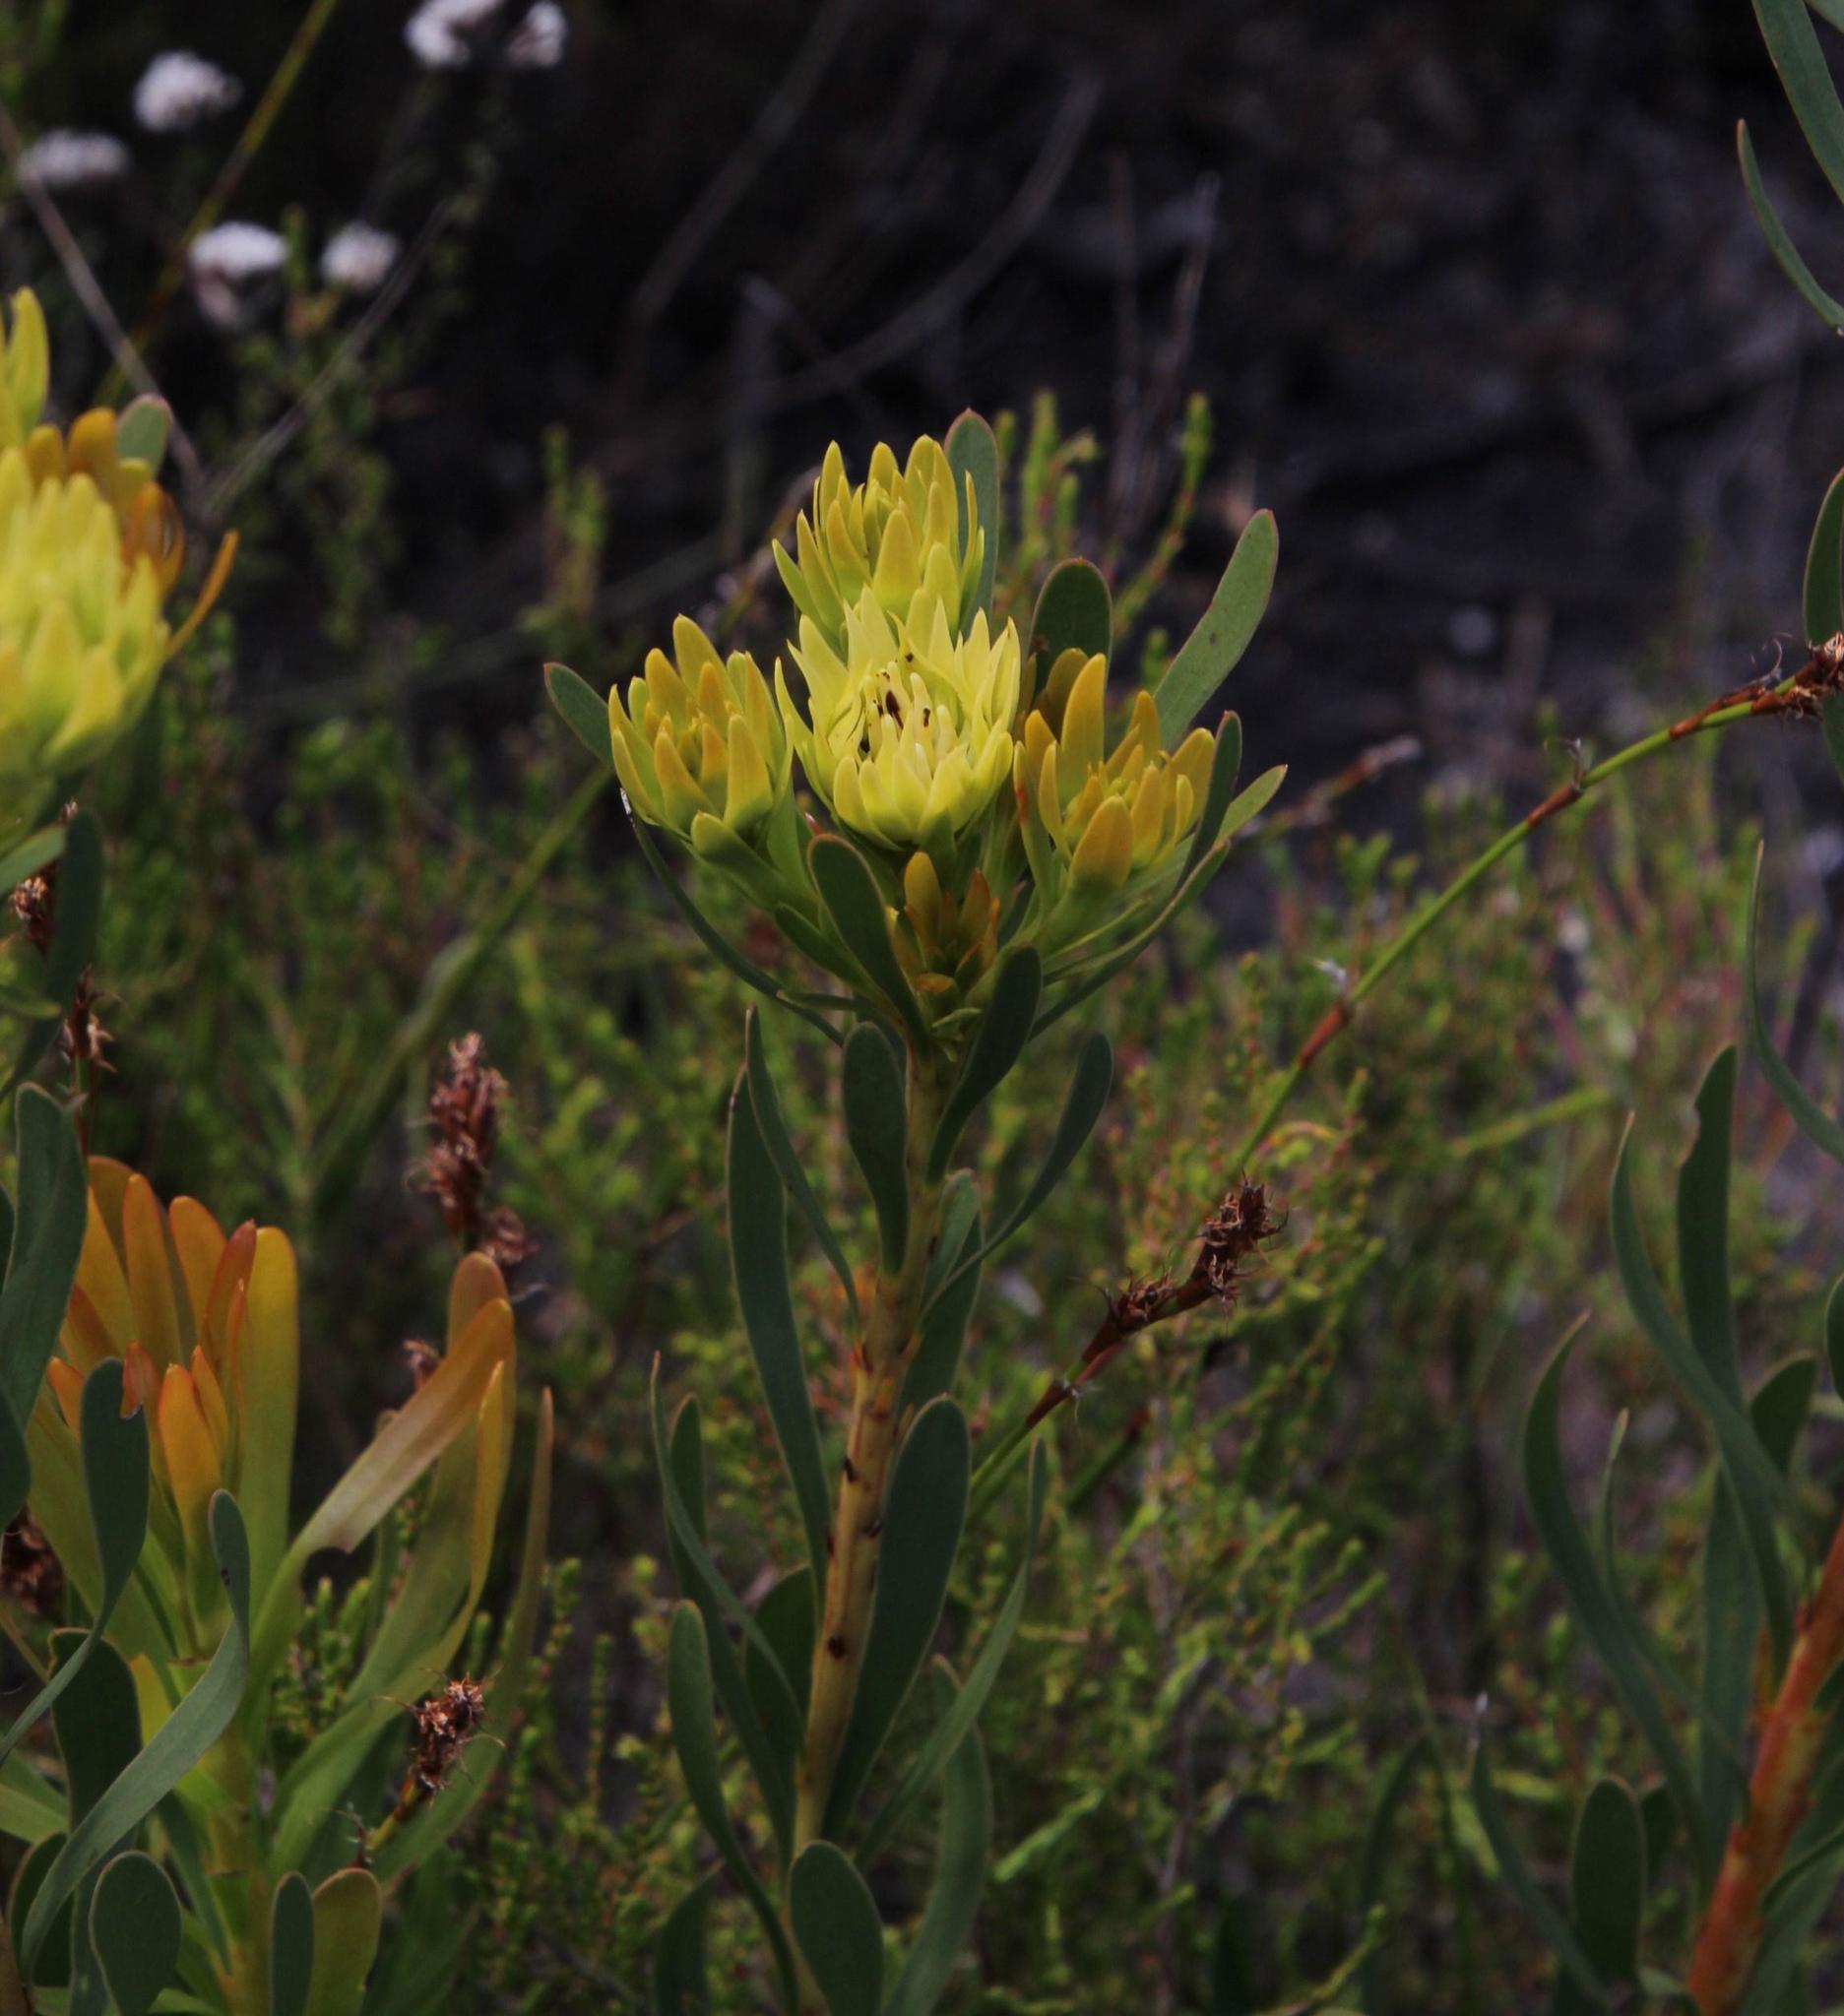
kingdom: Plantae
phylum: Tracheophyta
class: Magnoliopsida
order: Proteales
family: Proteaceae
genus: Aulax
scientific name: Aulax umbellata
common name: Broad-leaf featherbush
